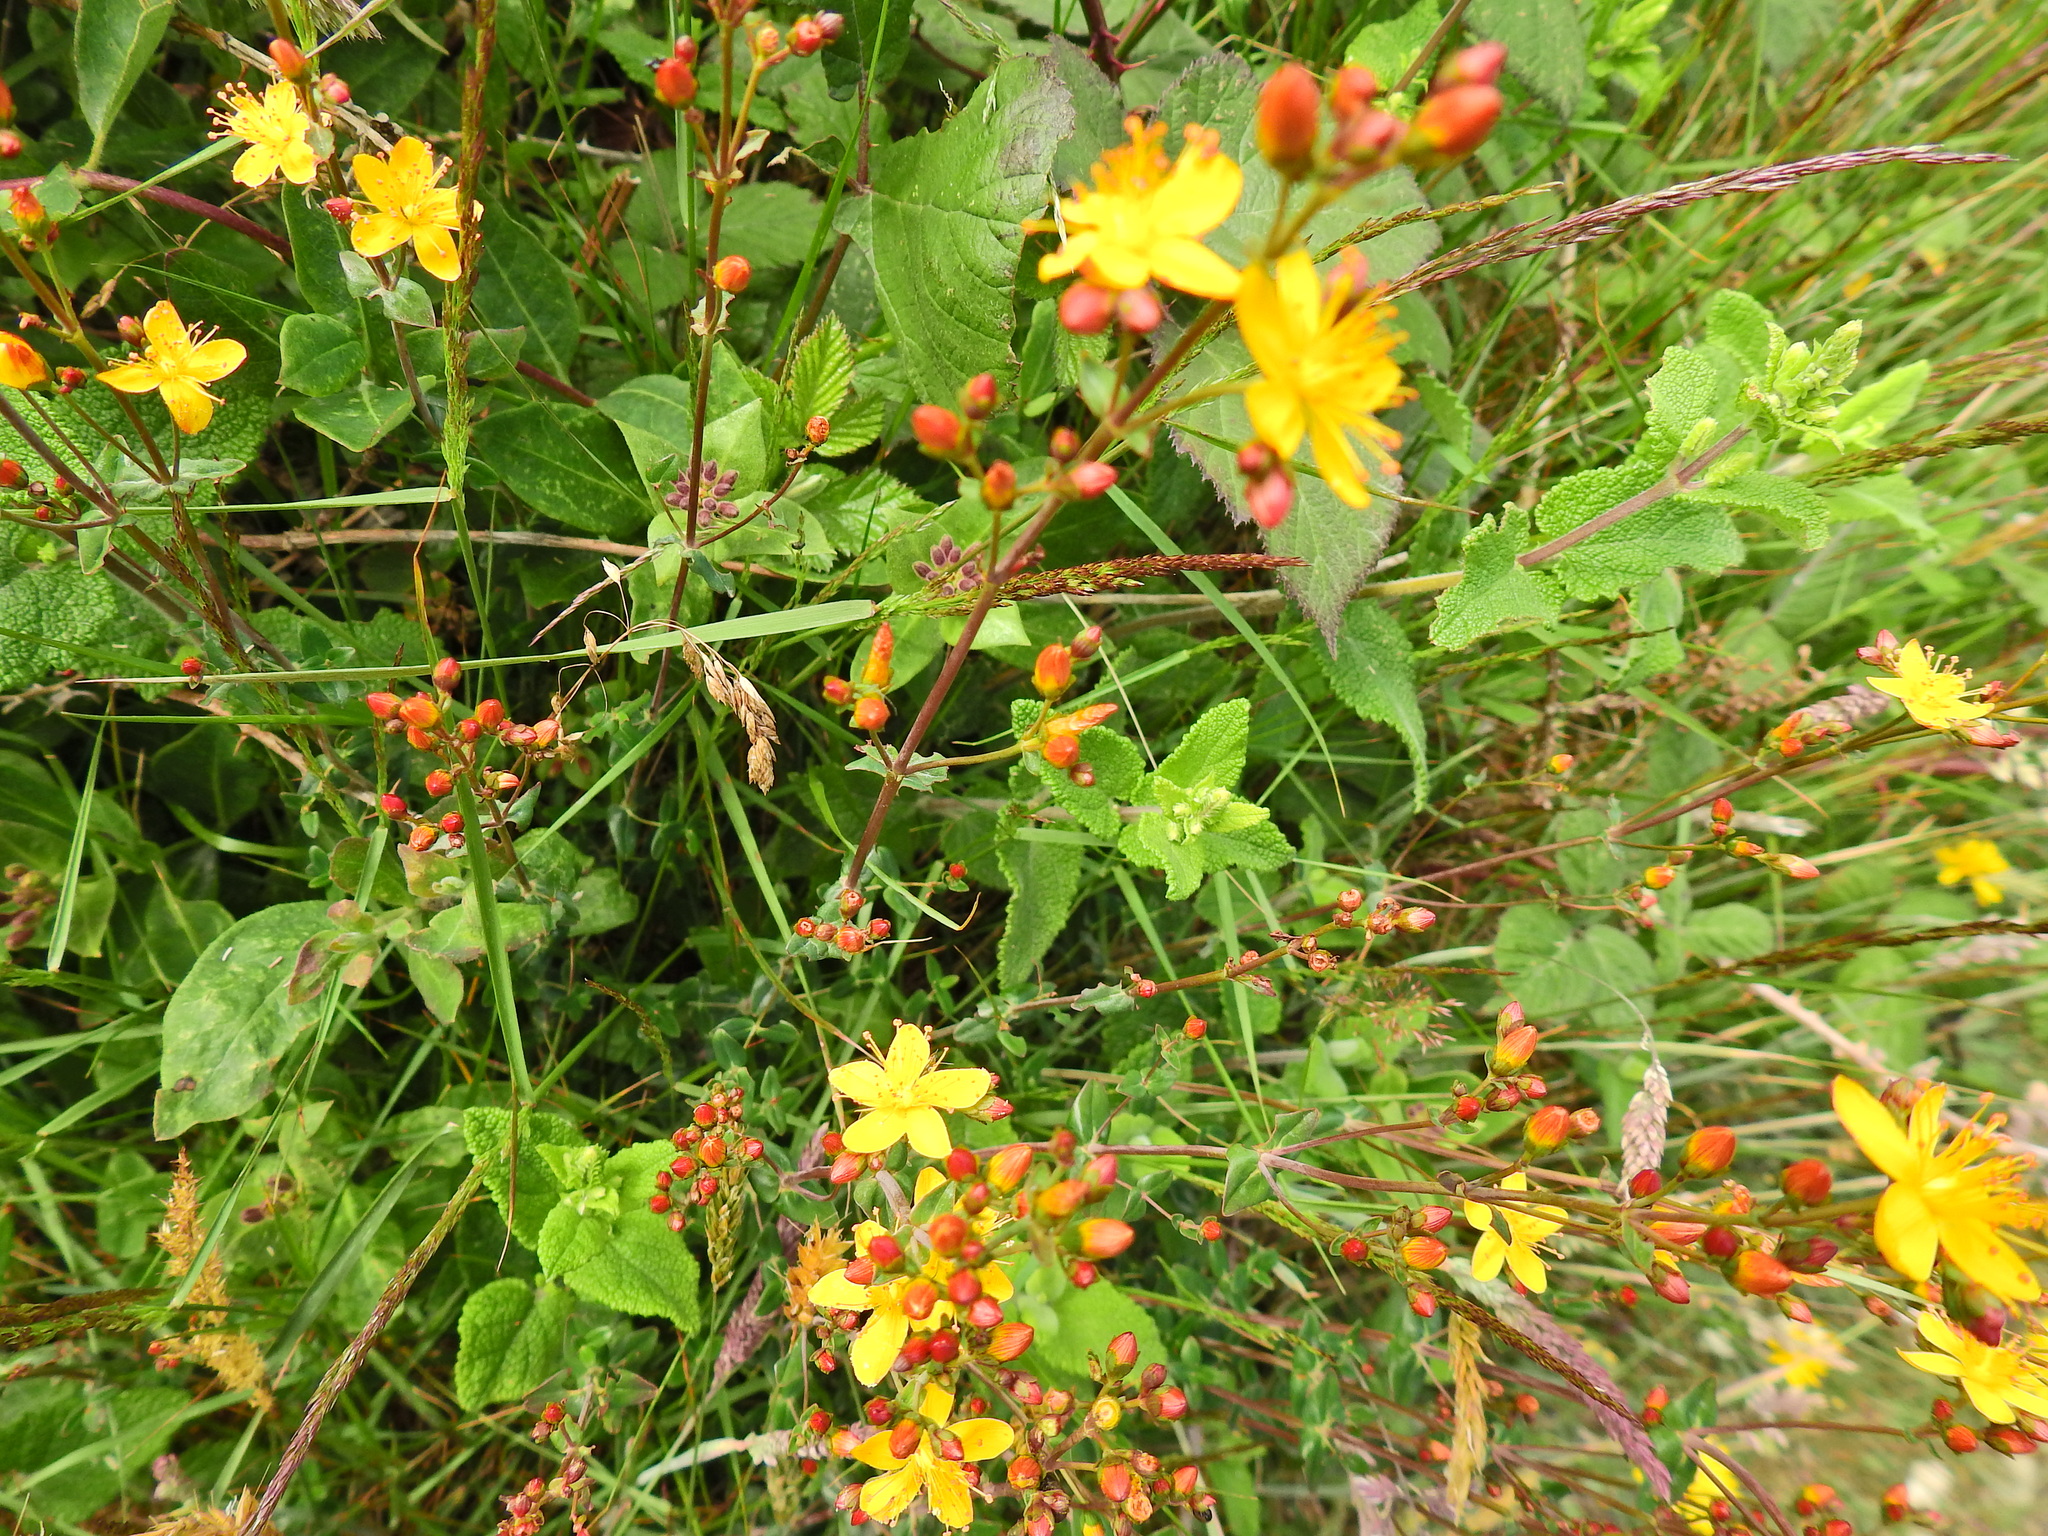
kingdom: Plantae
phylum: Tracheophyta
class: Magnoliopsida
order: Malpighiales
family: Hypericaceae
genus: Hypericum
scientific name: Hypericum pulchrum
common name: Slender st. john's-wort
